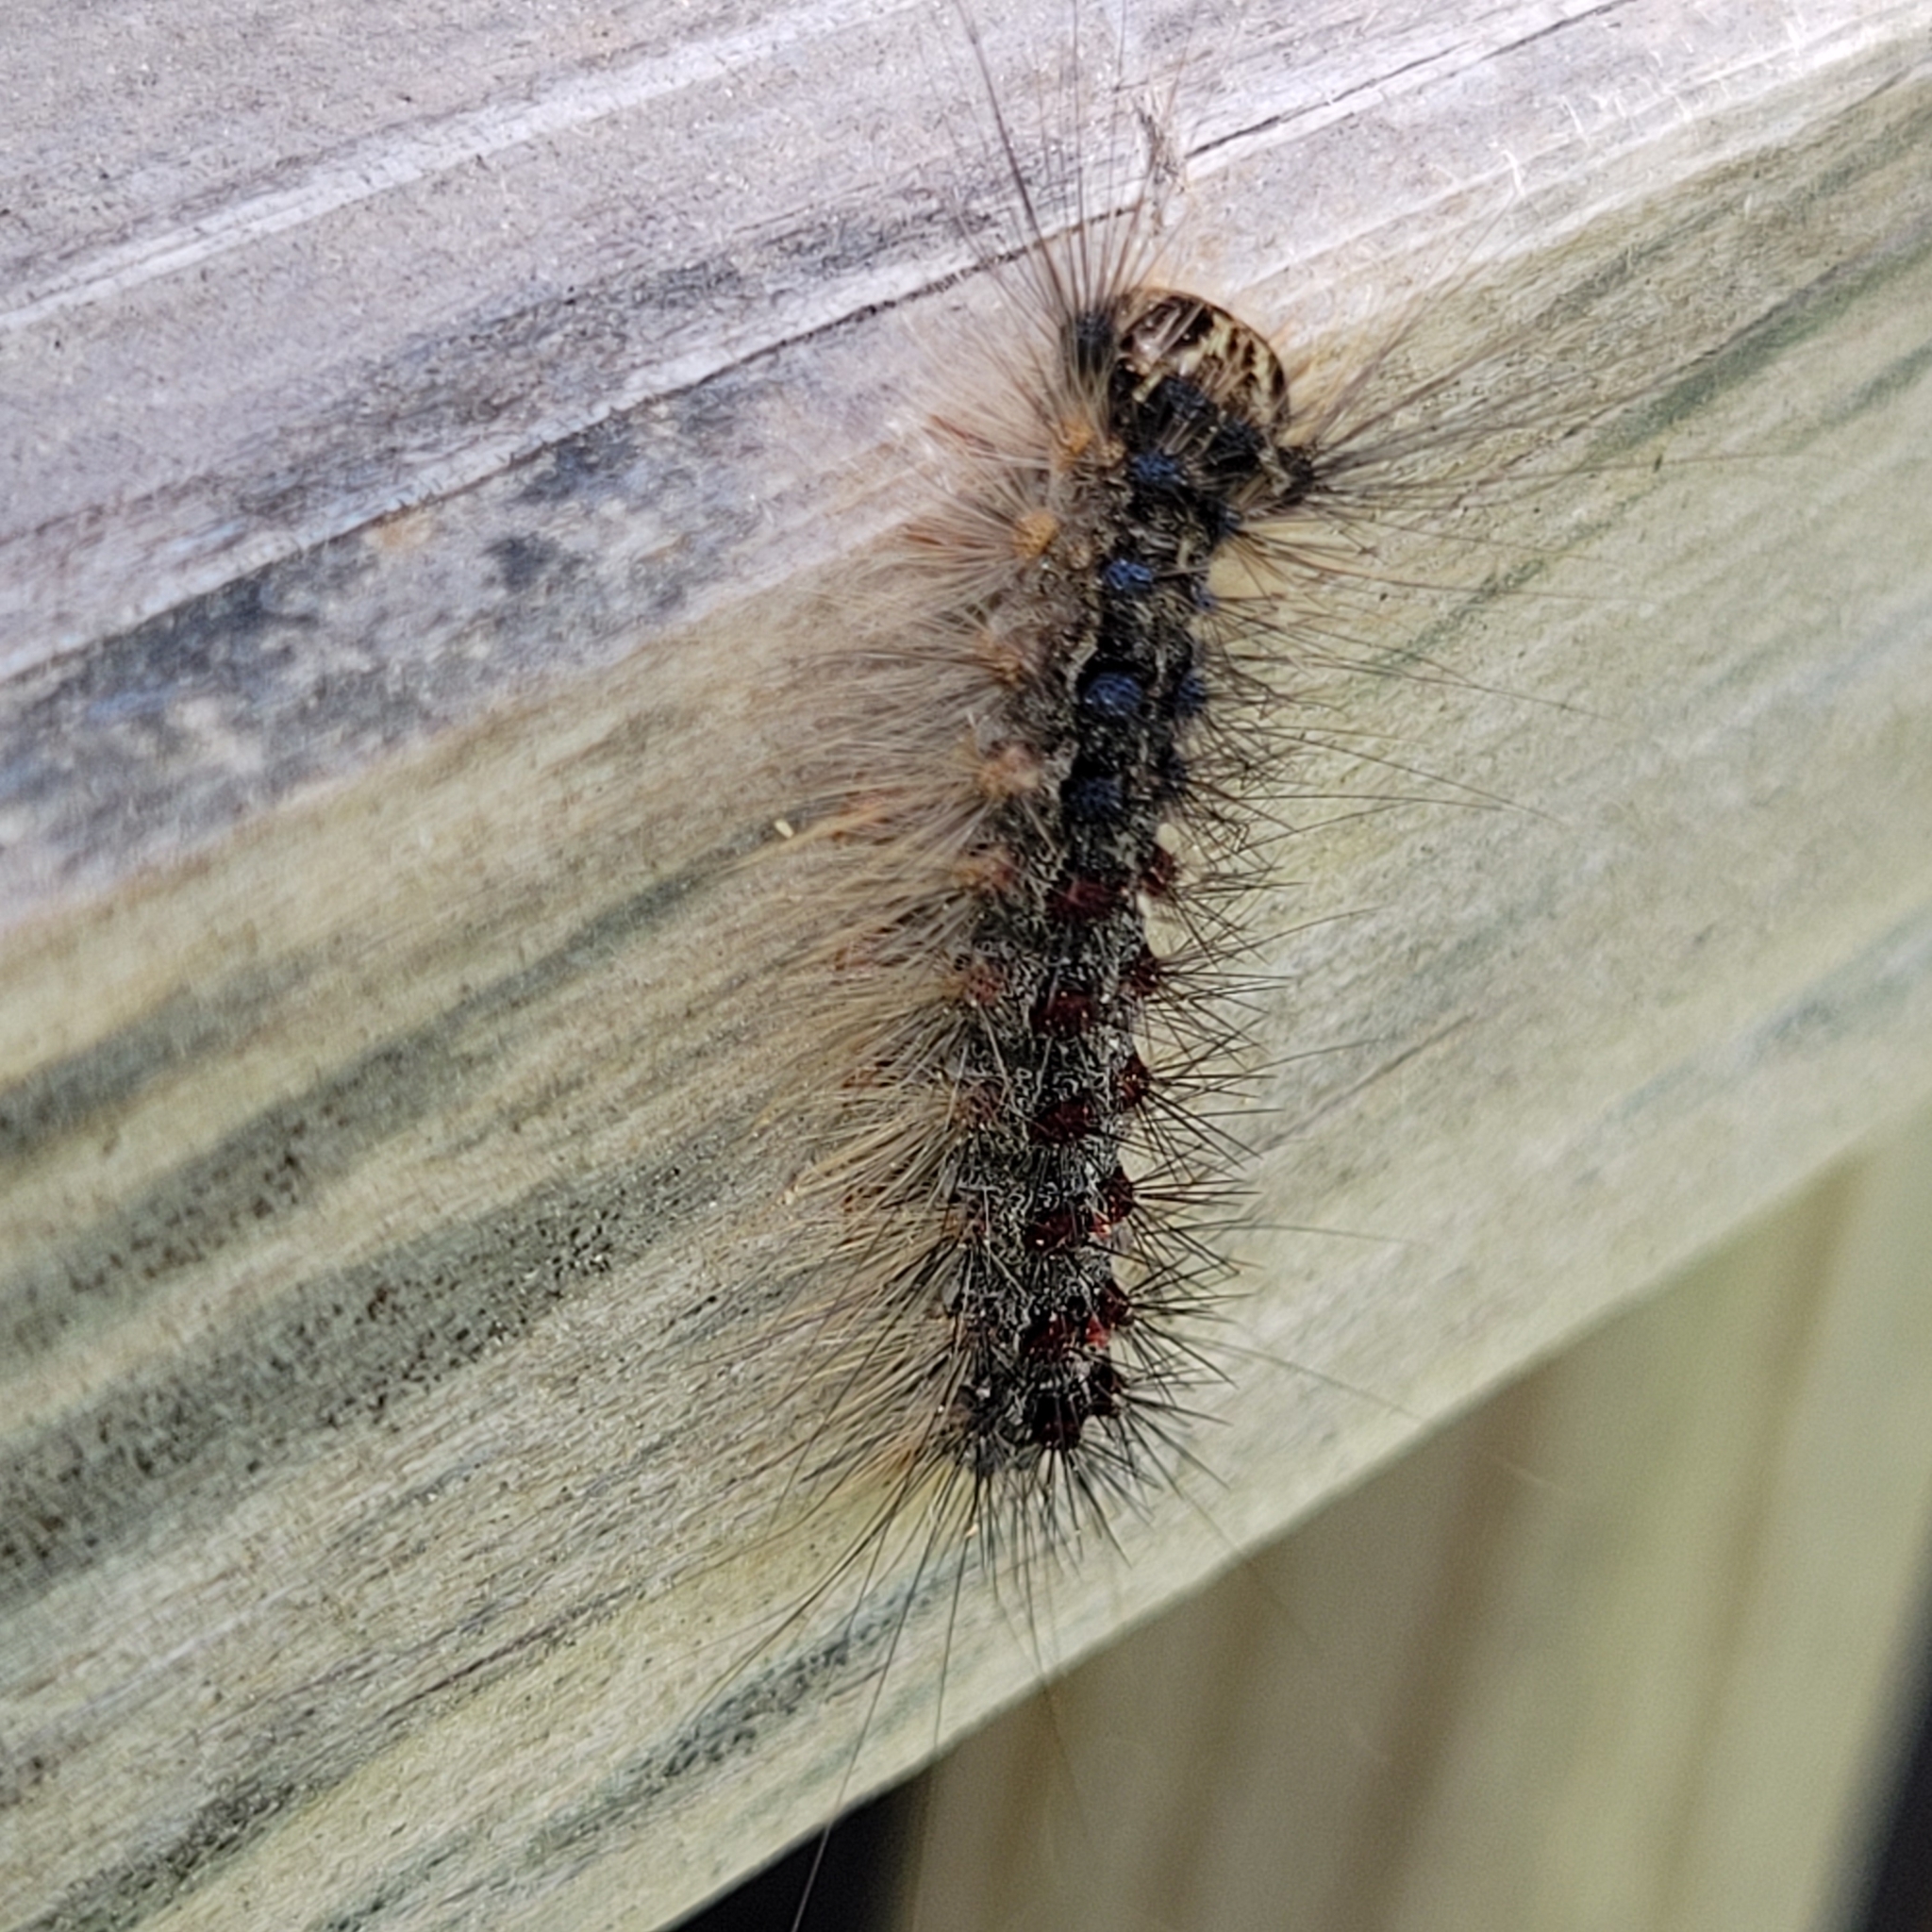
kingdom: Animalia
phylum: Arthropoda
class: Insecta
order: Lepidoptera
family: Erebidae
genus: Lymantria
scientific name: Lymantria dispar
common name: Gypsy moth
